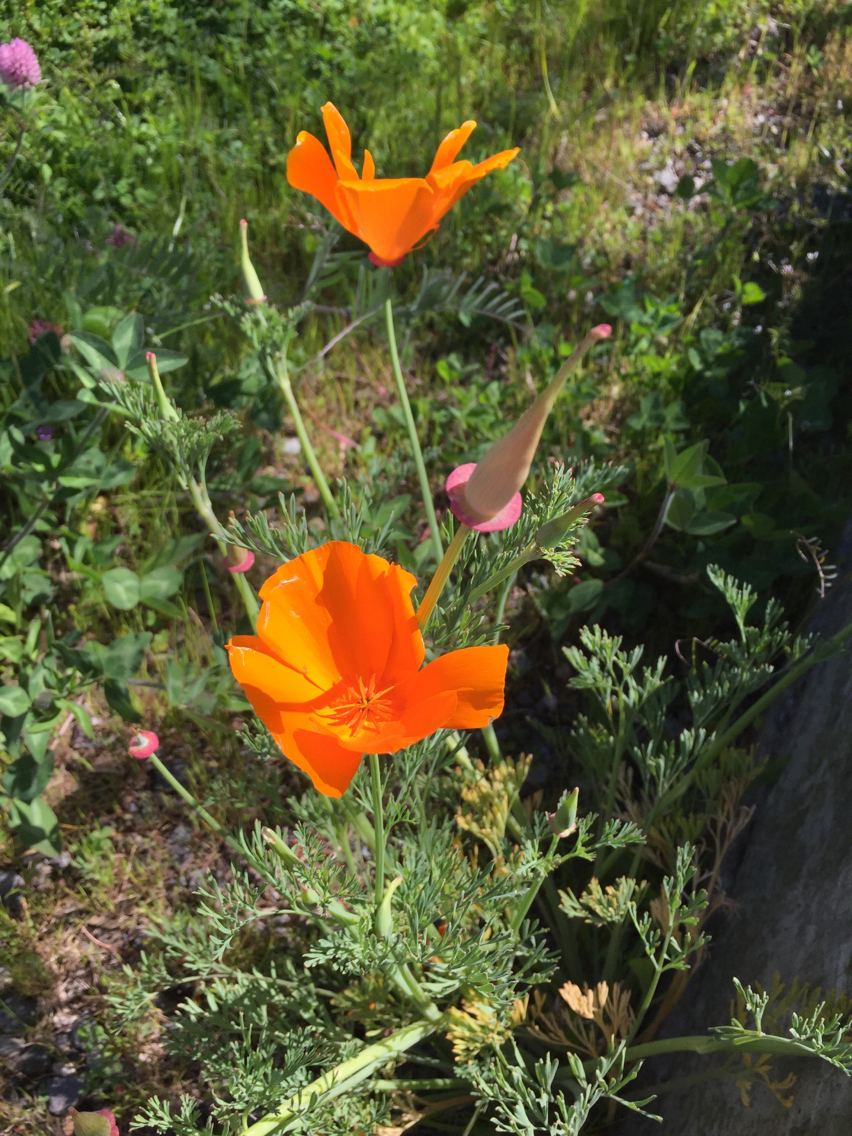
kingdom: Plantae
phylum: Tracheophyta
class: Magnoliopsida
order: Ranunculales
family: Papaveraceae
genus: Eschscholzia
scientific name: Eschscholzia californica
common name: California poppy
